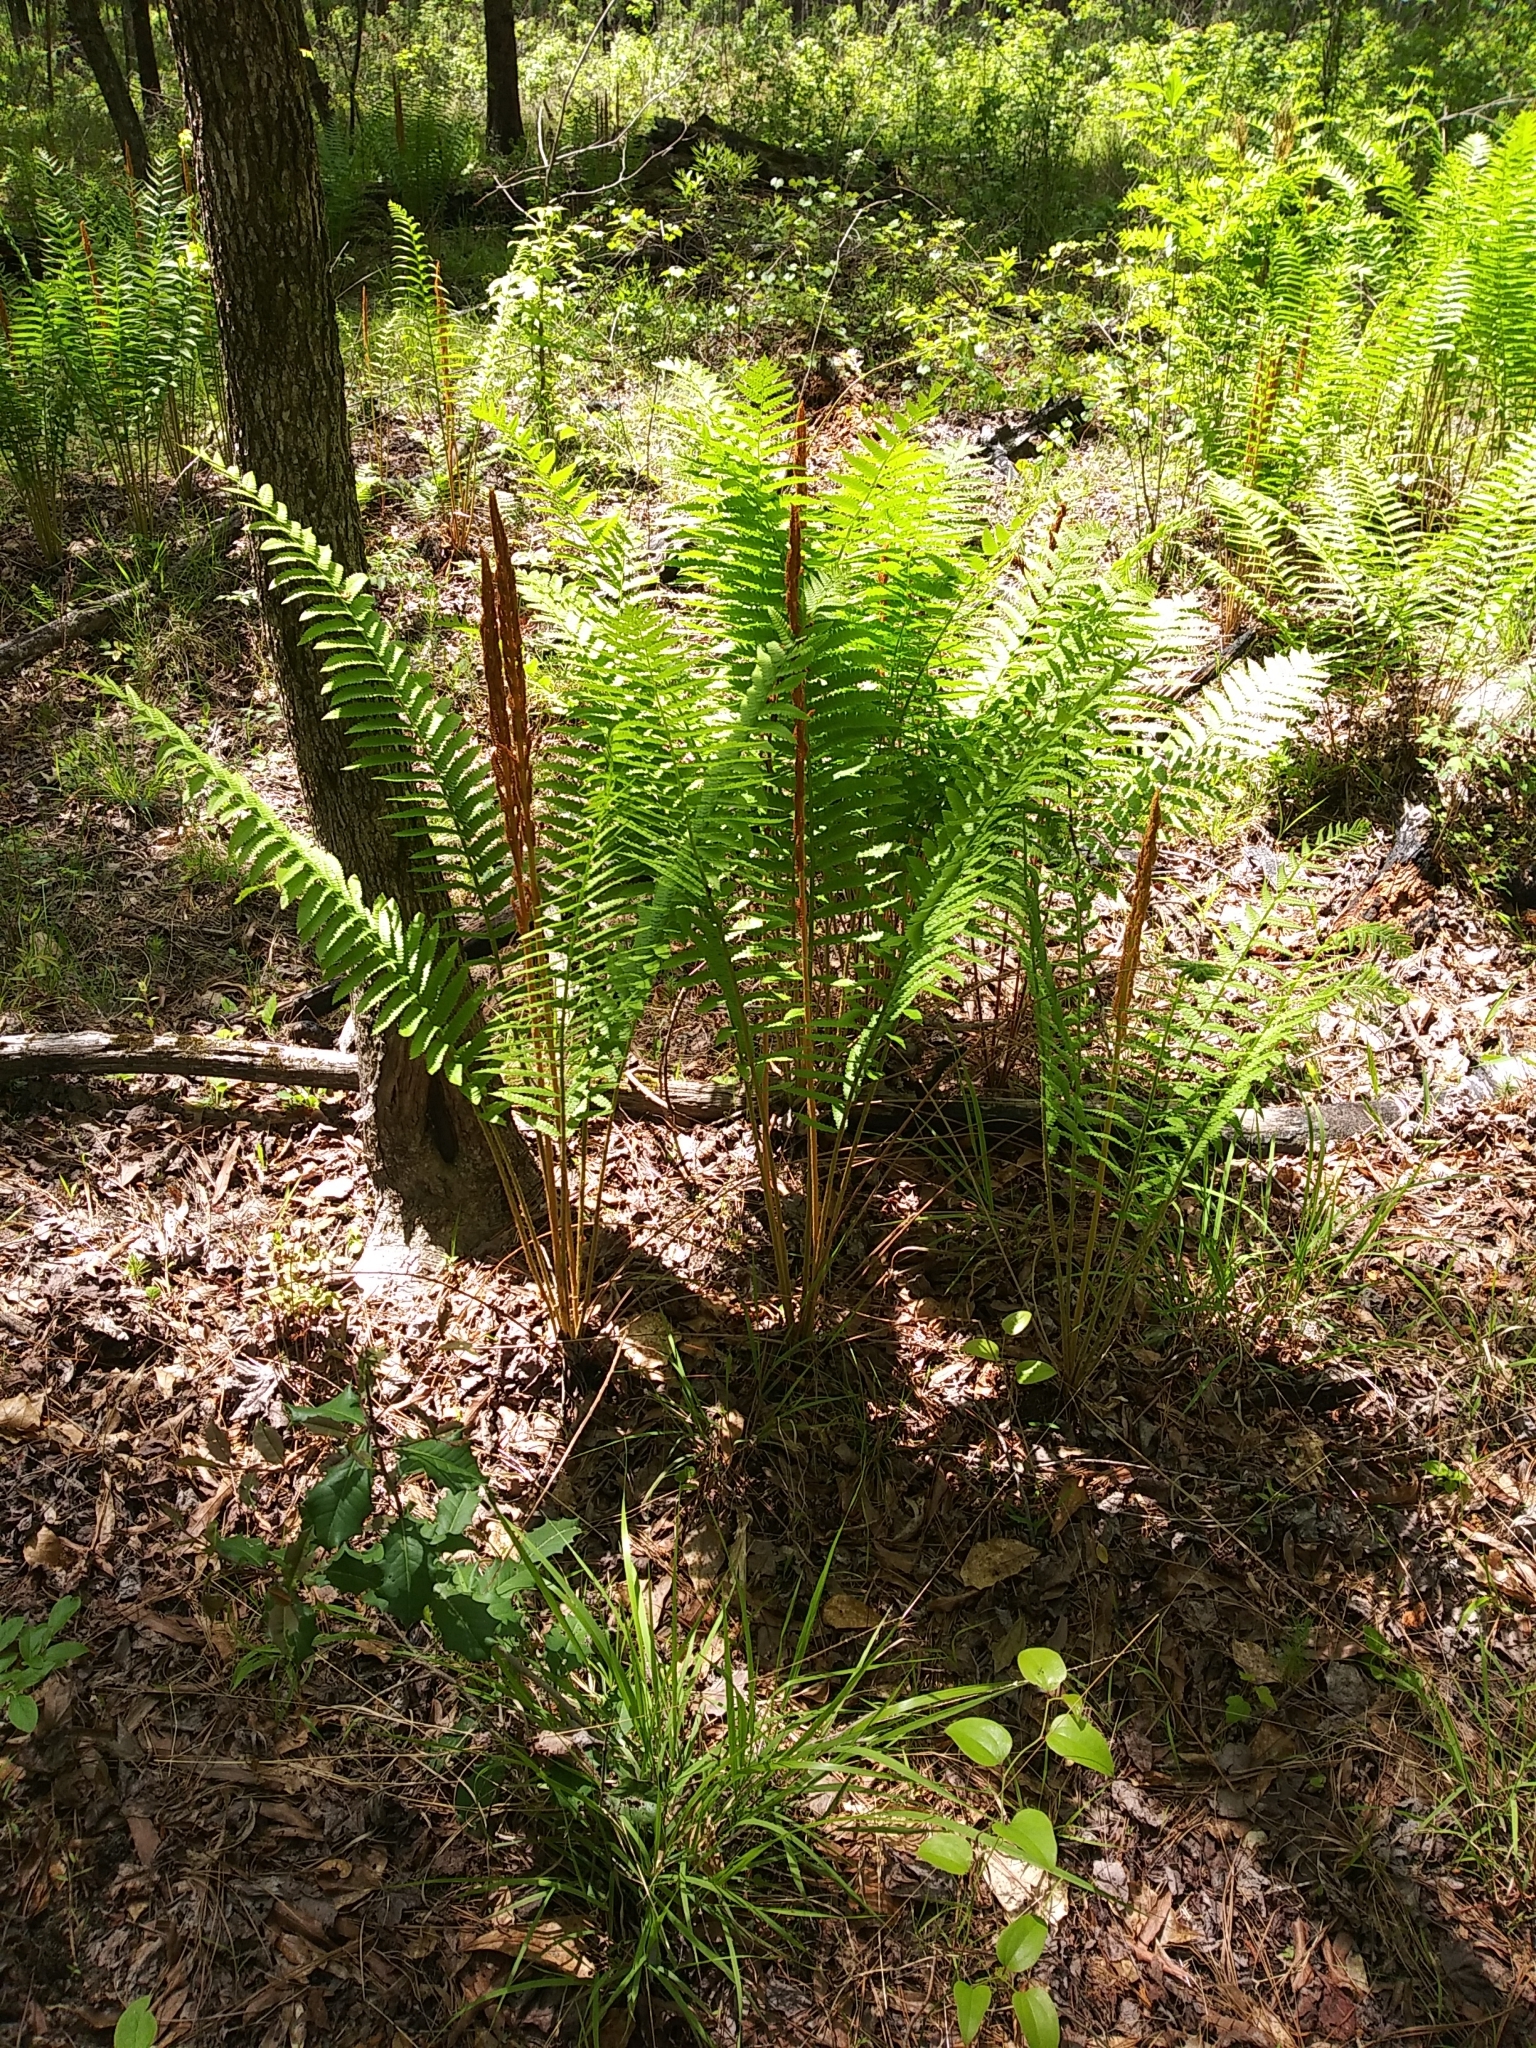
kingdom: Plantae
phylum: Tracheophyta
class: Polypodiopsida
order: Osmundales
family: Osmundaceae
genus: Osmundastrum
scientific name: Osmundastrum cinnamomeum
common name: Cinnamon fern
